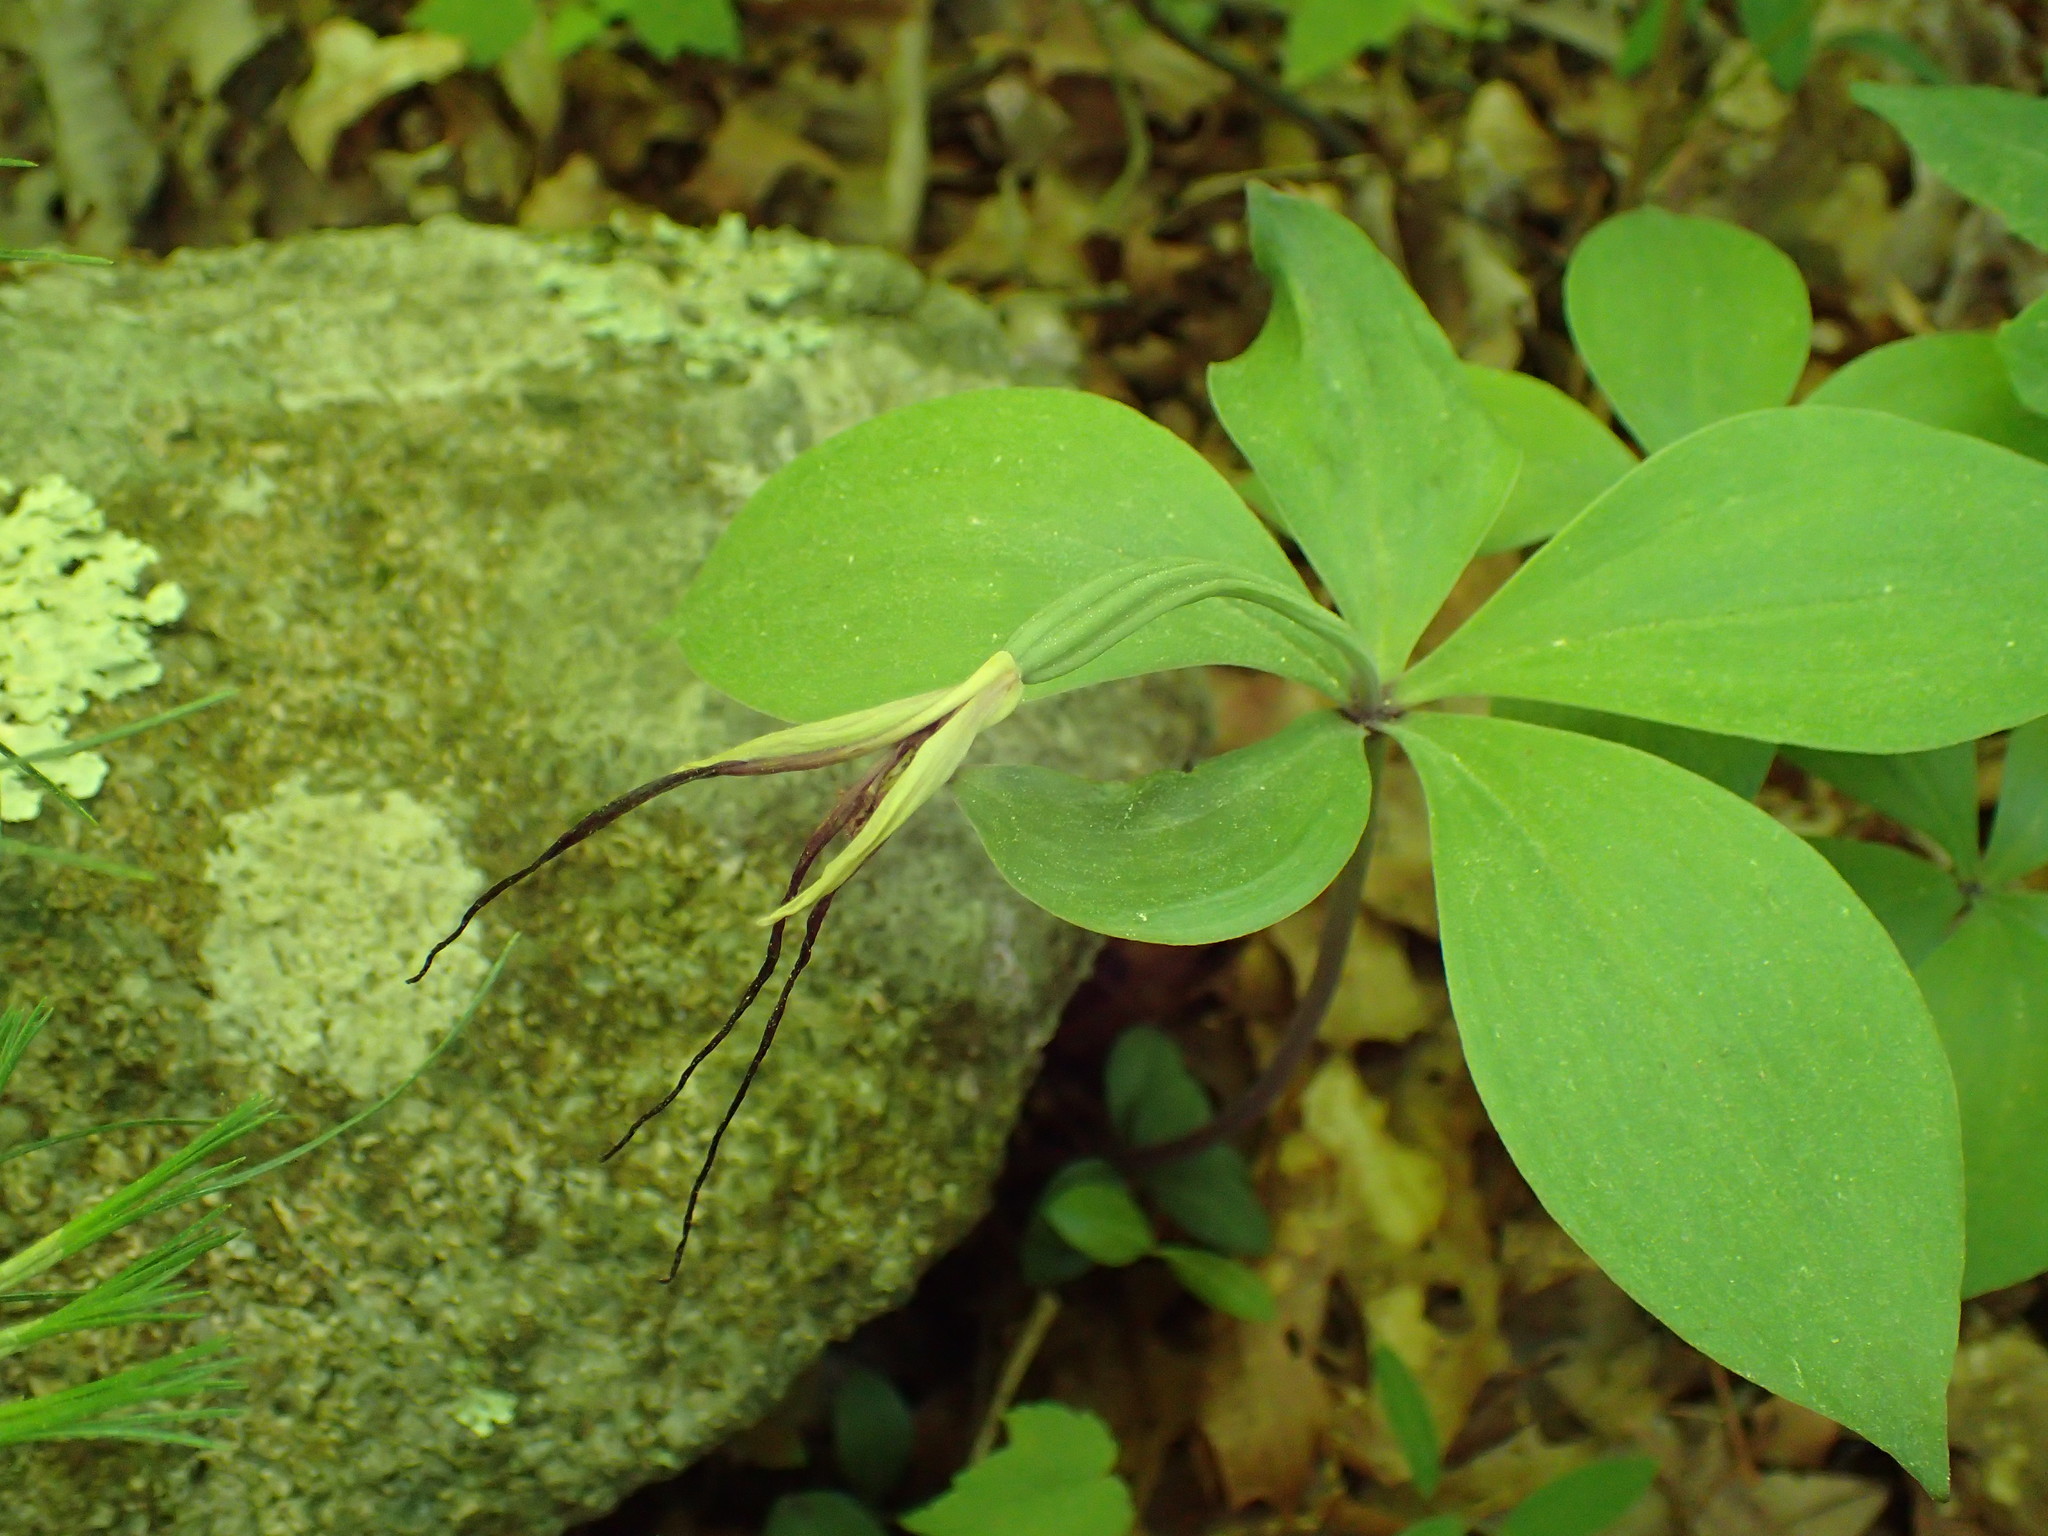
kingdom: Plantae
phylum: Tracheophyta
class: Liliopsida
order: Asparagales
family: Orchidaceae
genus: Isotria
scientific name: Isotria verticillata
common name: Large whorled pogonia
